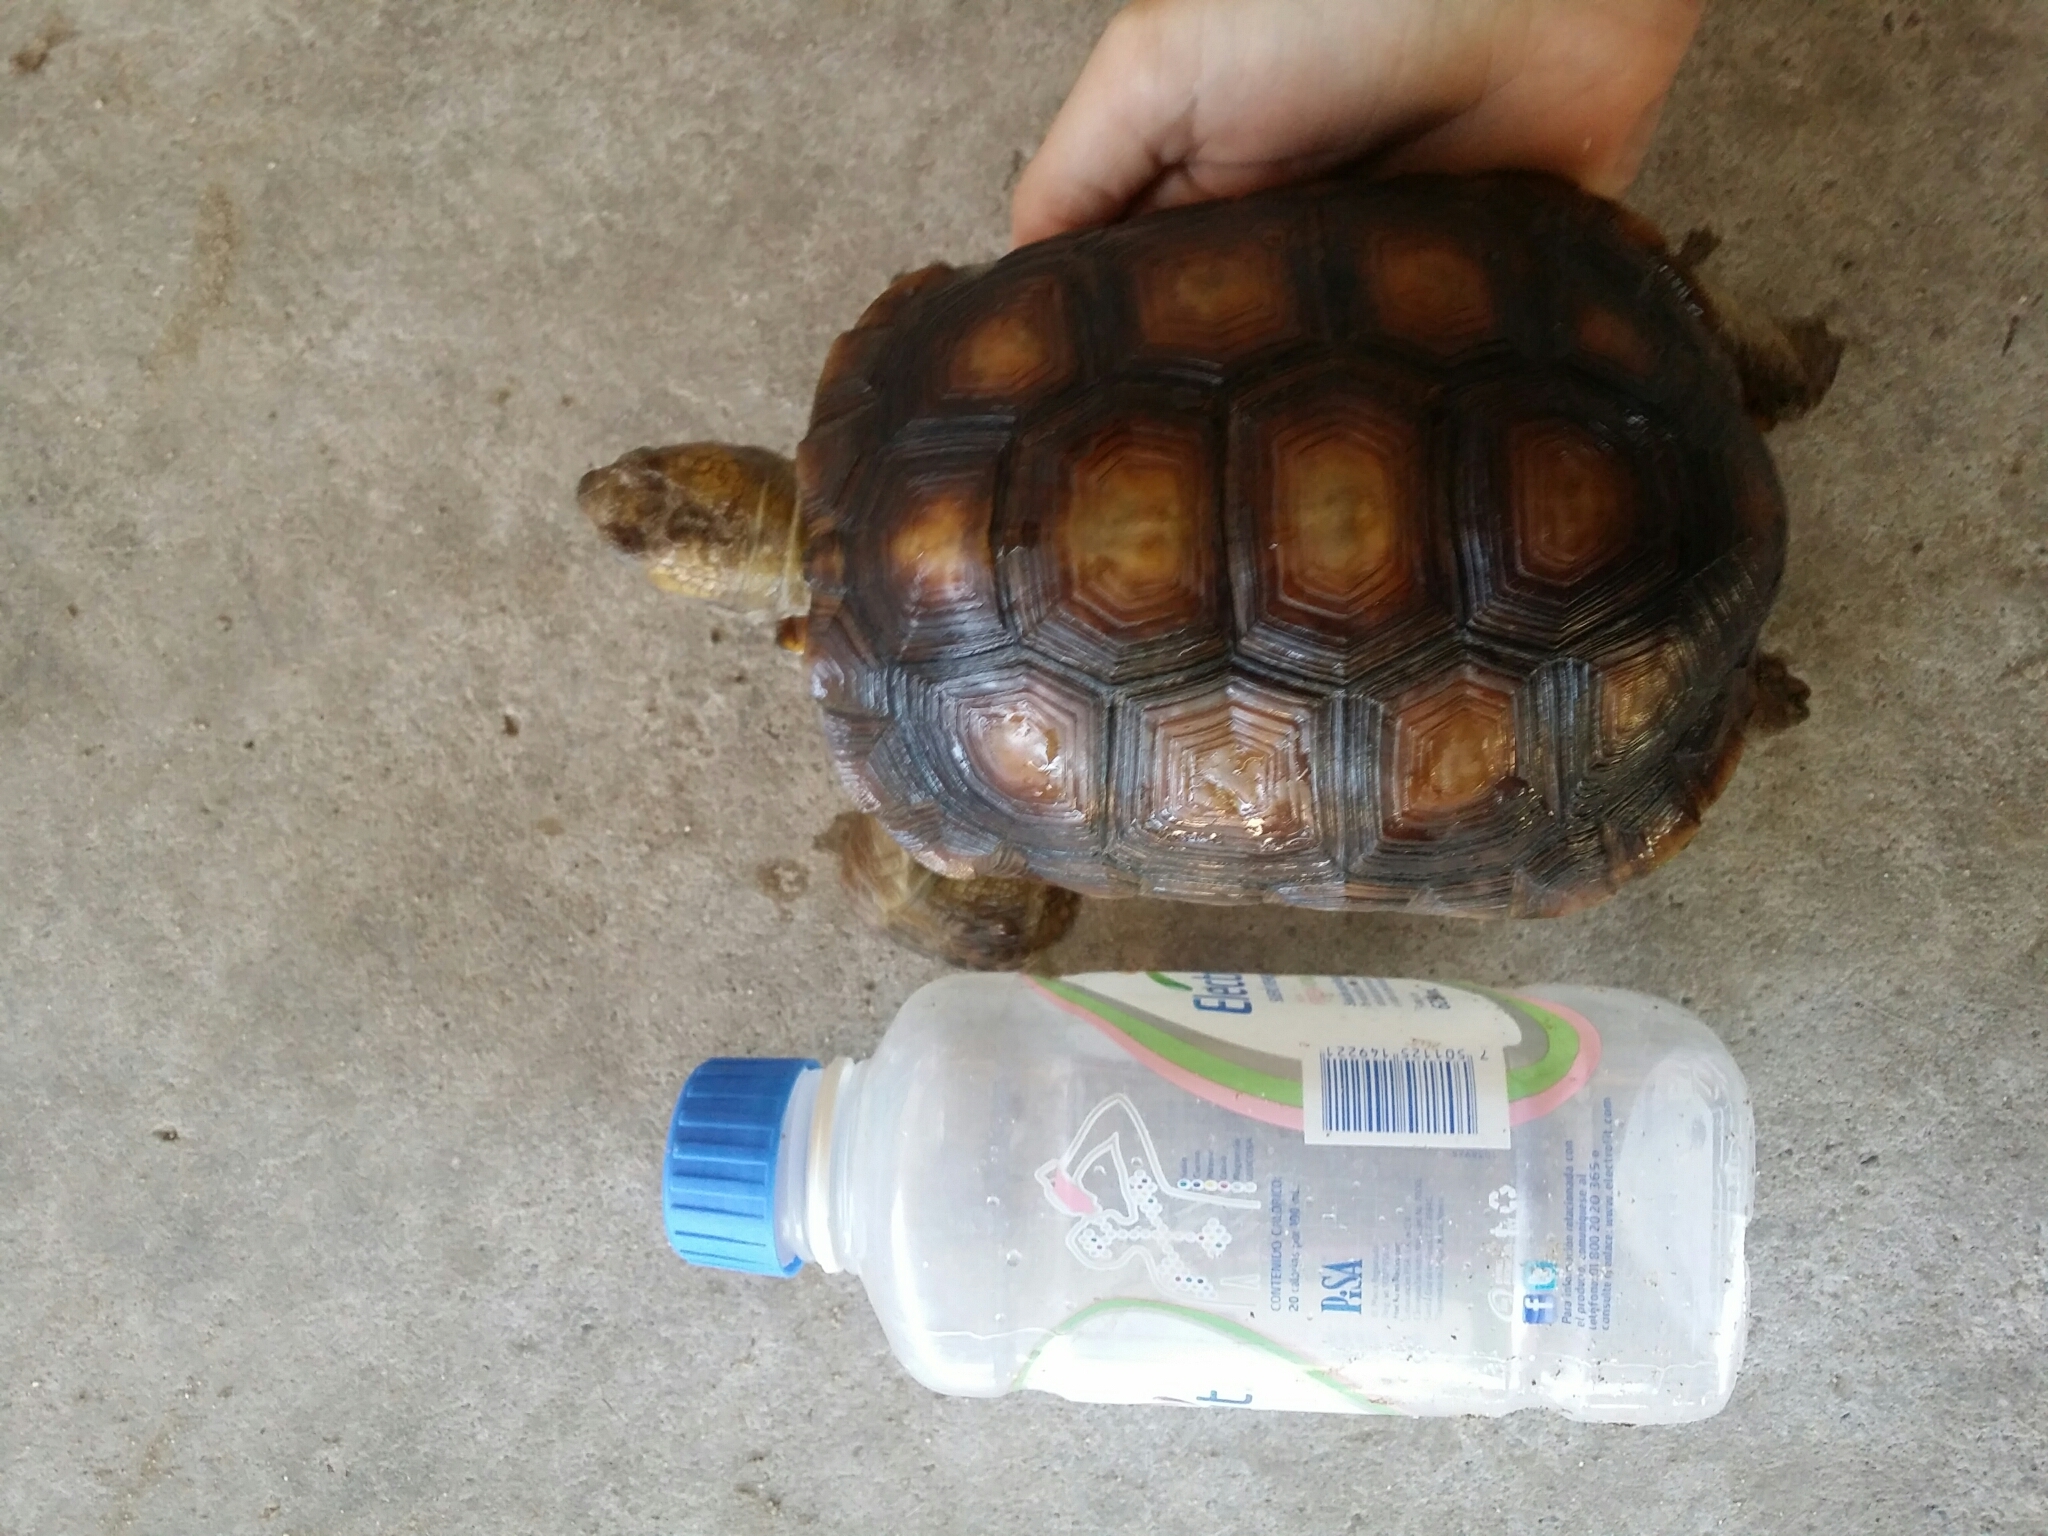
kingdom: Animalia
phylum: Chordata
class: Testudines
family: Testudinidae
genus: Gopherus
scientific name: Gopherus morafkai
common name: Sonoran desert tortoise
